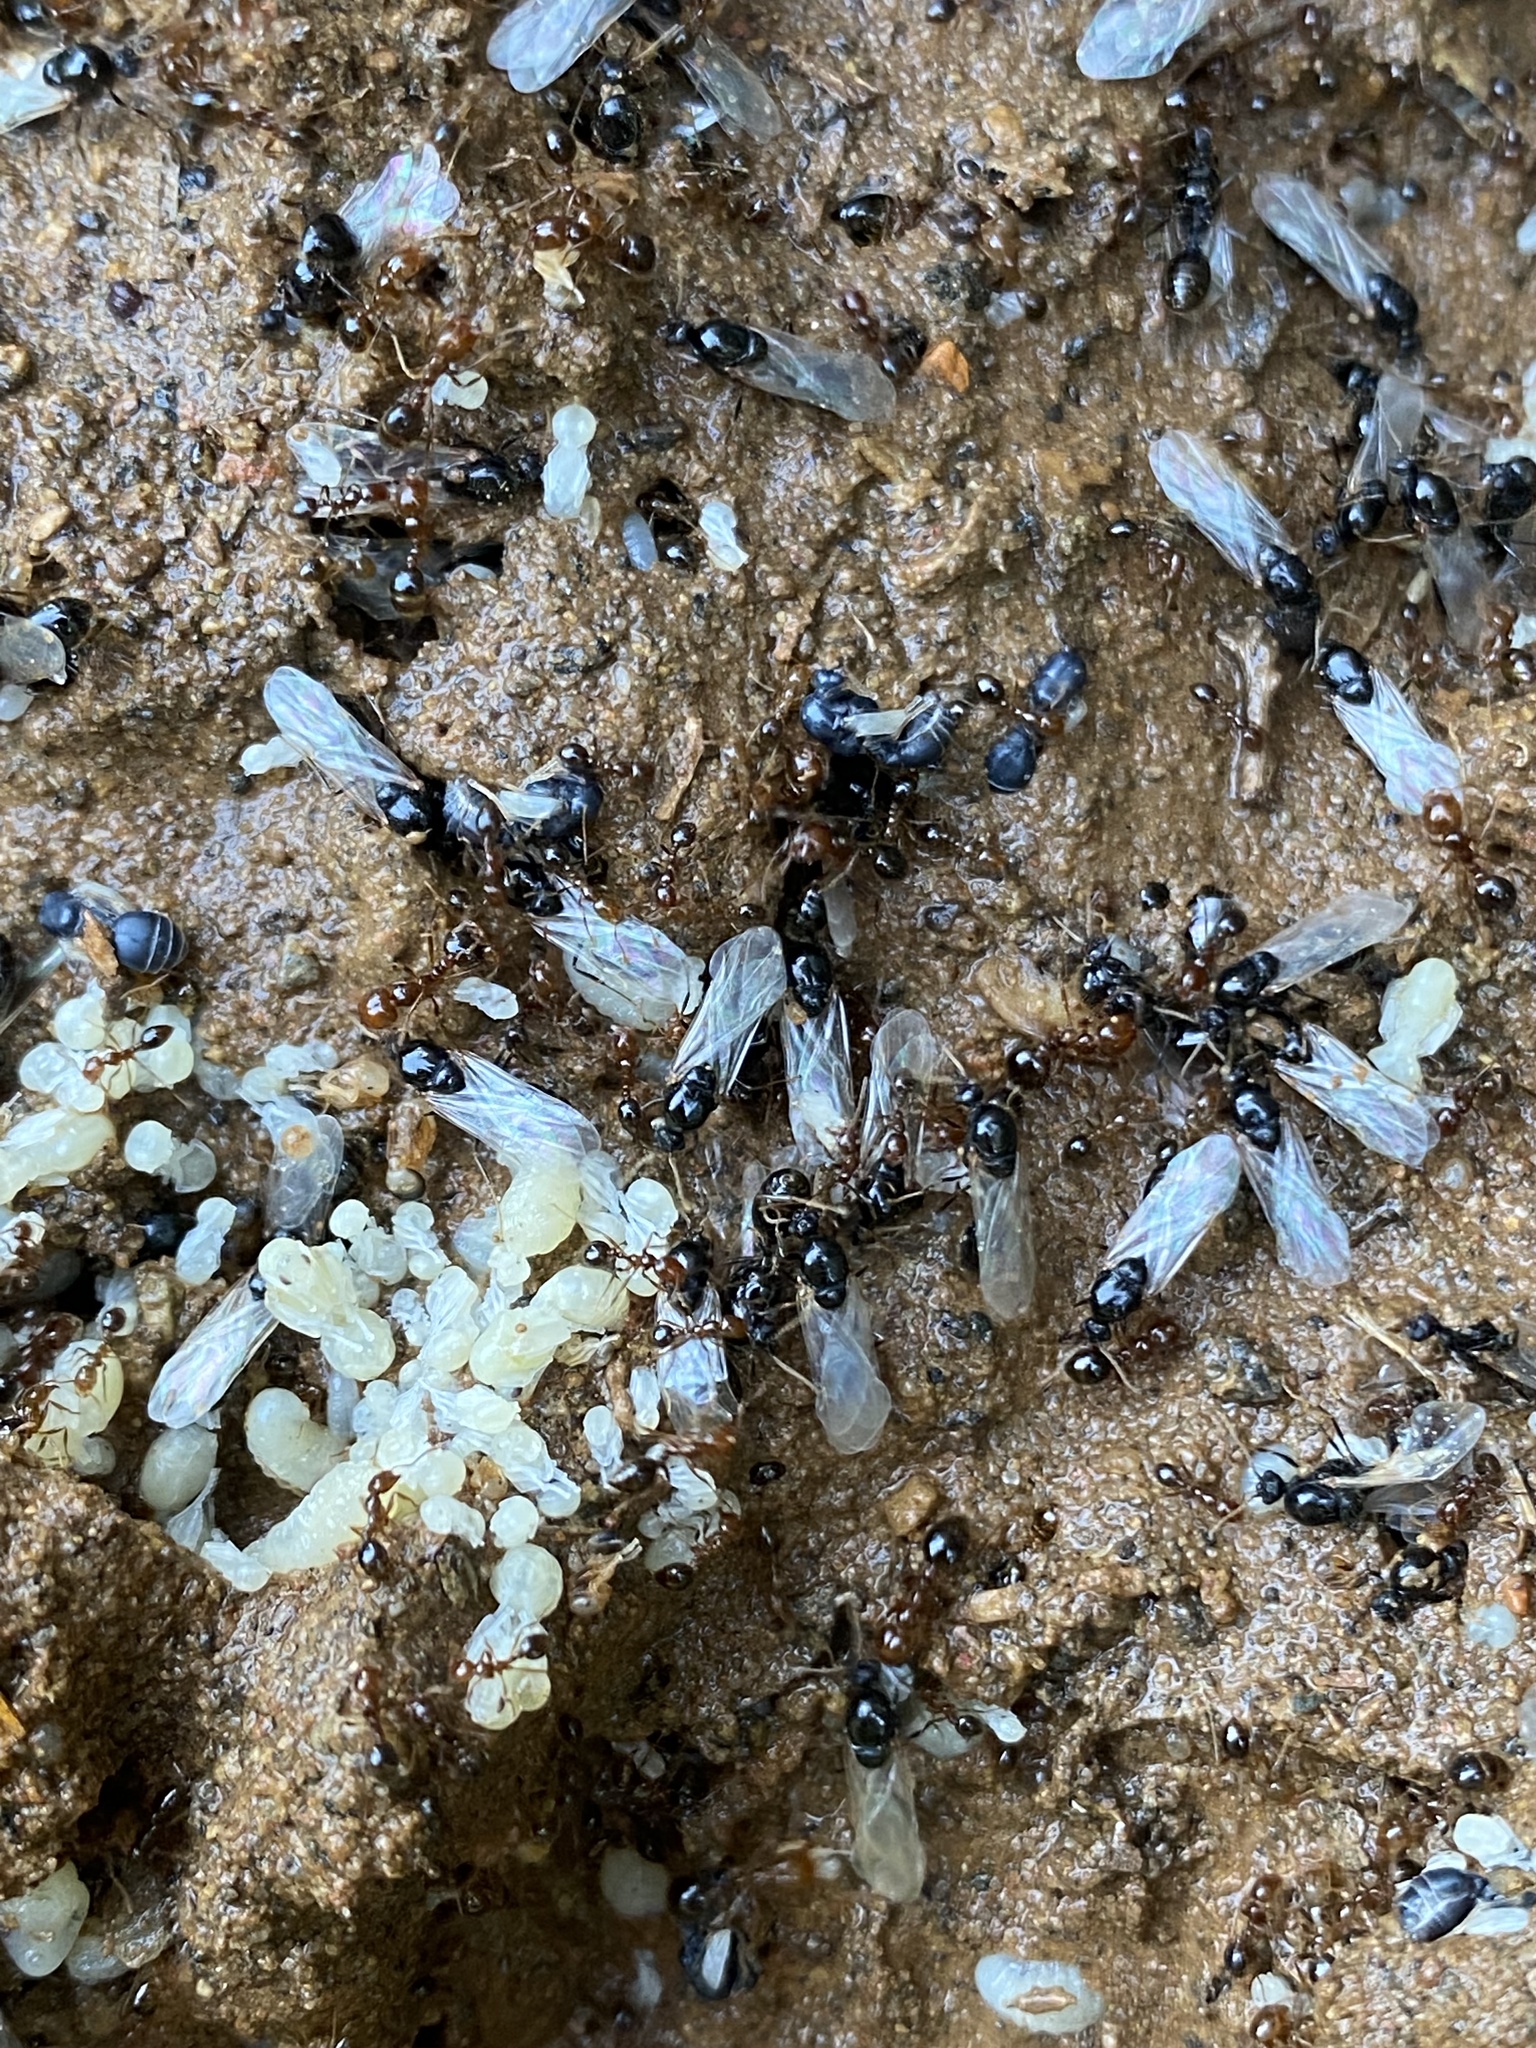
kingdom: Animalia
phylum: Arthropoda
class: Insecta
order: Hymenoptera
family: Formicidae
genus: Solenopsis
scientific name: Solenopsis invicta
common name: Red imported fire ant
